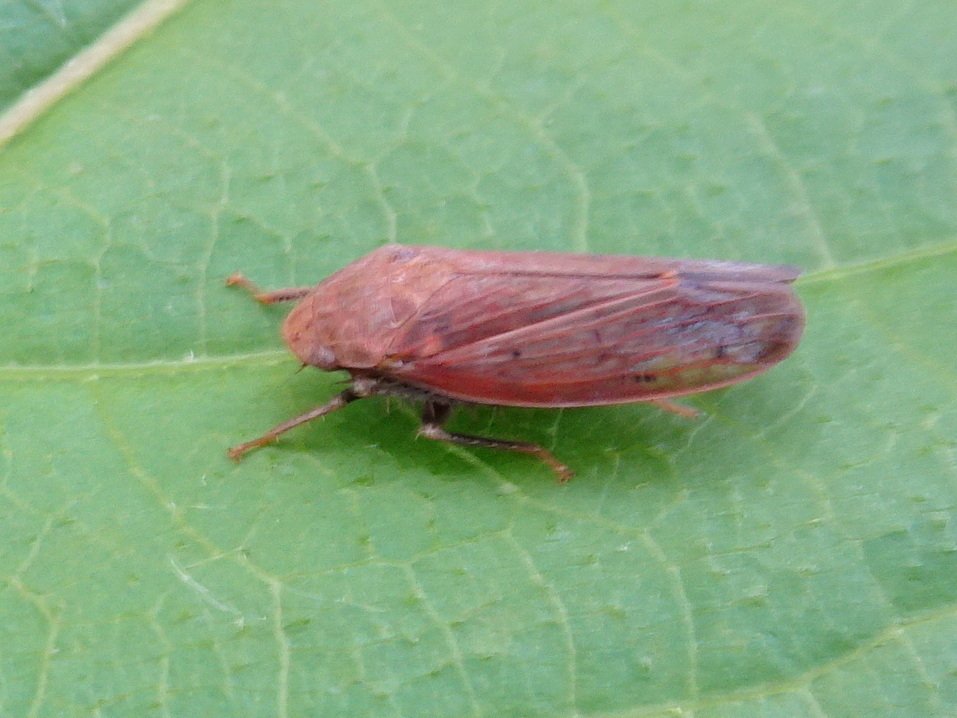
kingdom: Animalia
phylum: Arthropoda
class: Insecta
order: Hemiptera
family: Cicadellidae
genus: Ponana
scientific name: Ponana scarlatina
